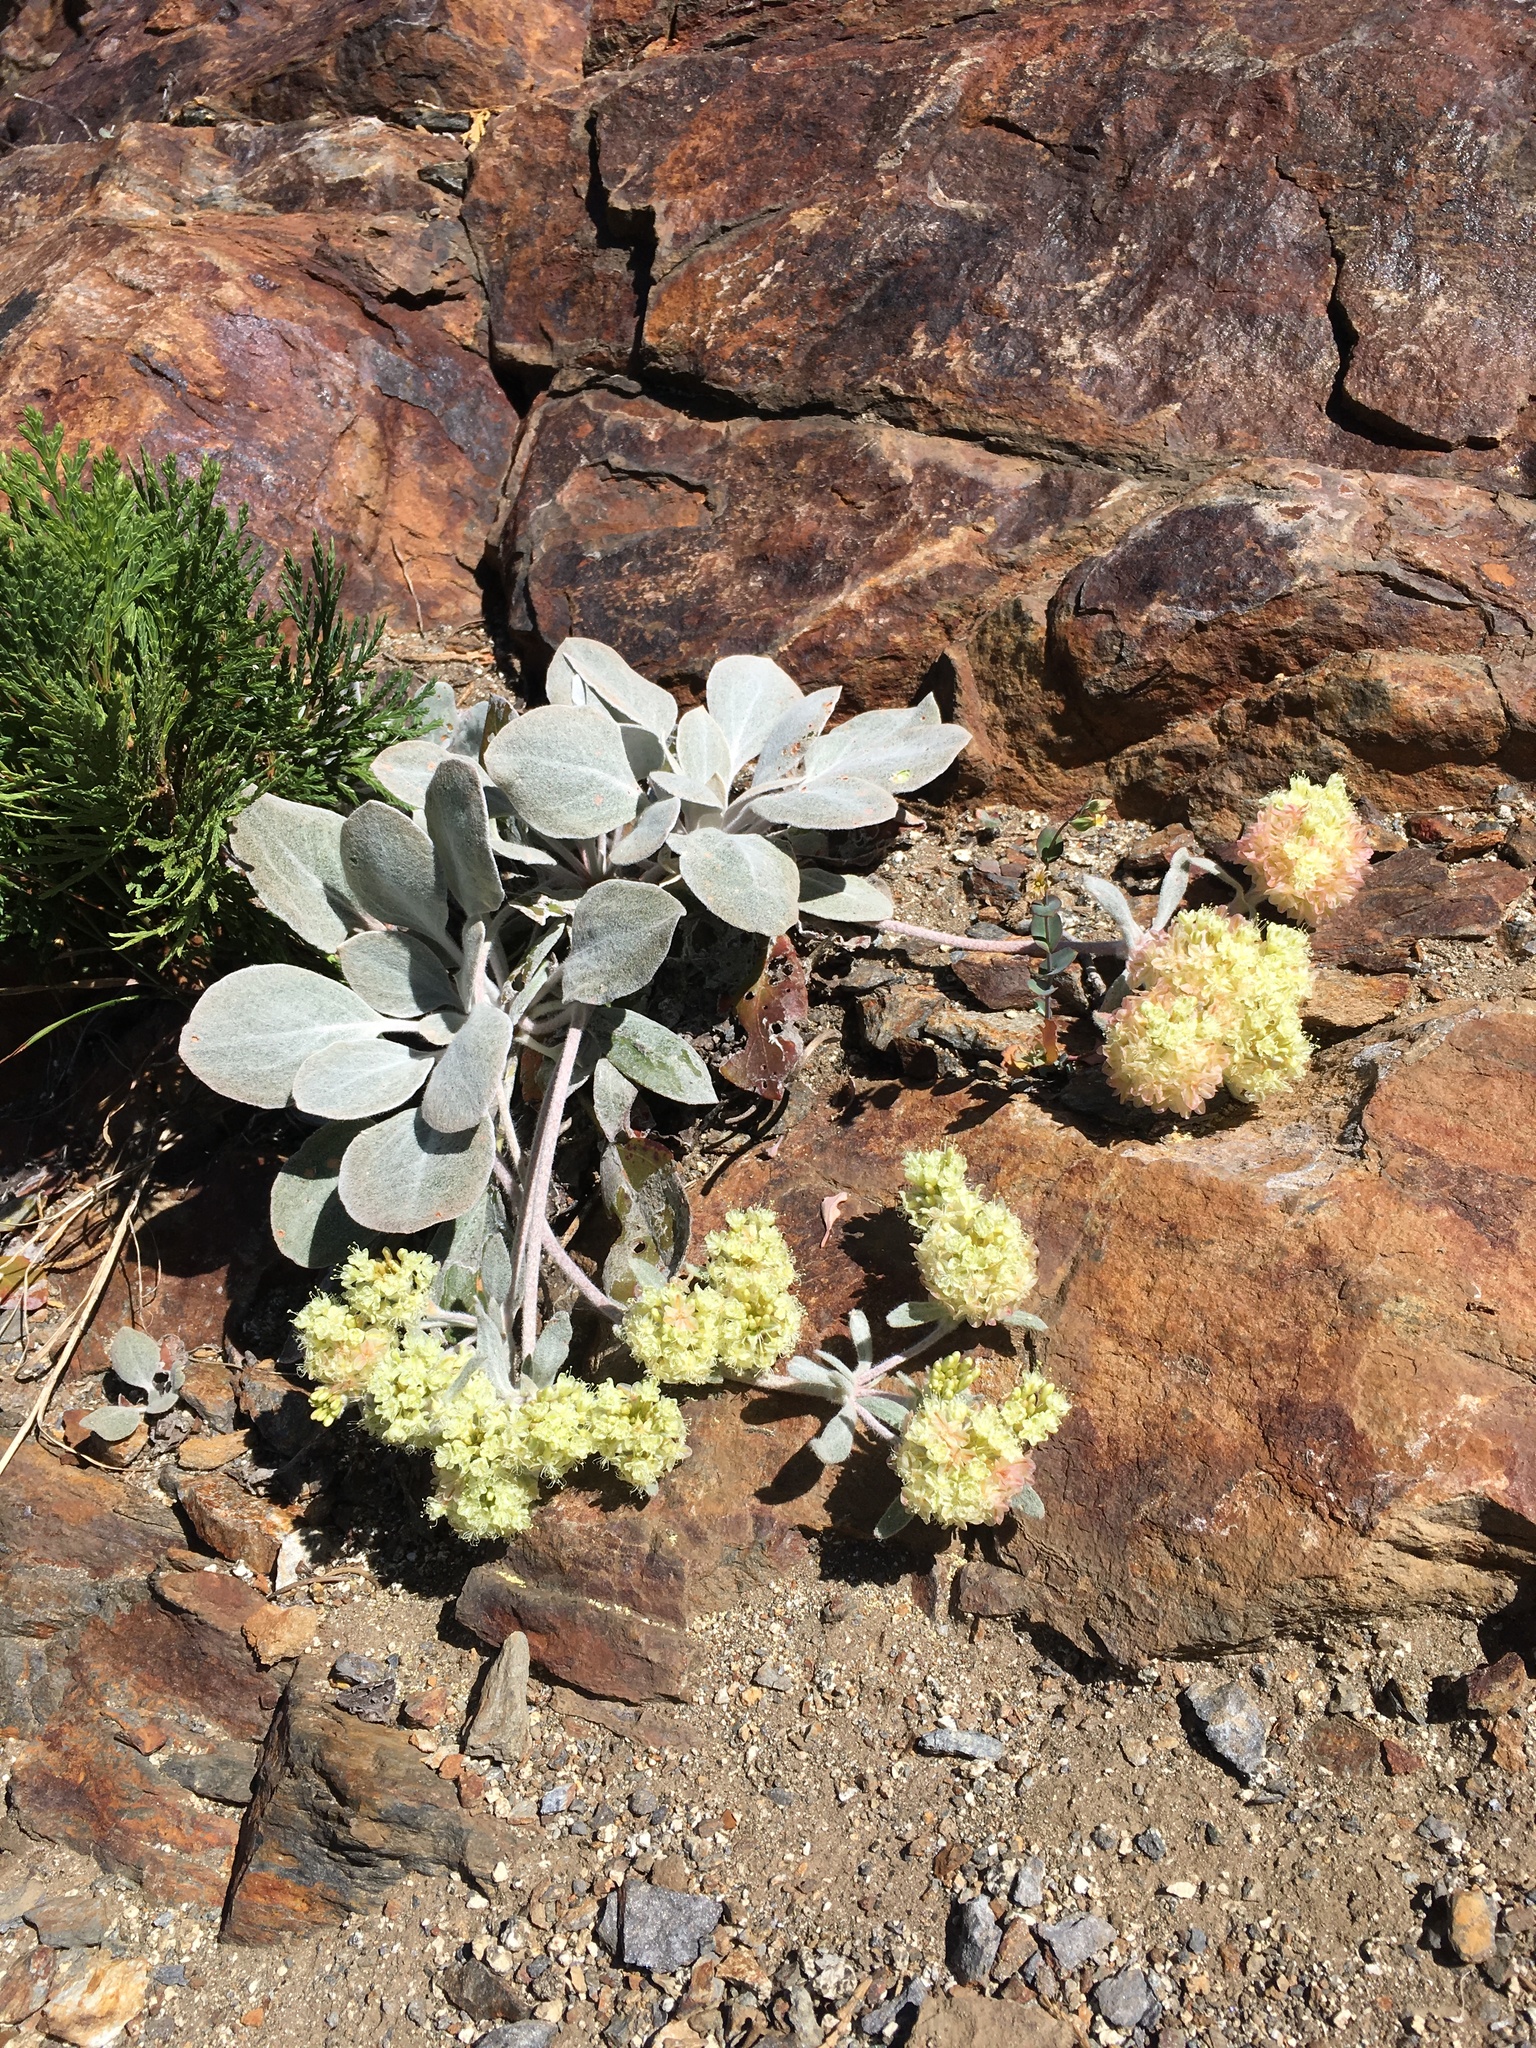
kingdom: Plantae
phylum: Tracheophyta
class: Magnoliopsida
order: Caryophyllales
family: Polygonaceae
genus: Eriogonum
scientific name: Eriogonum lobbii
